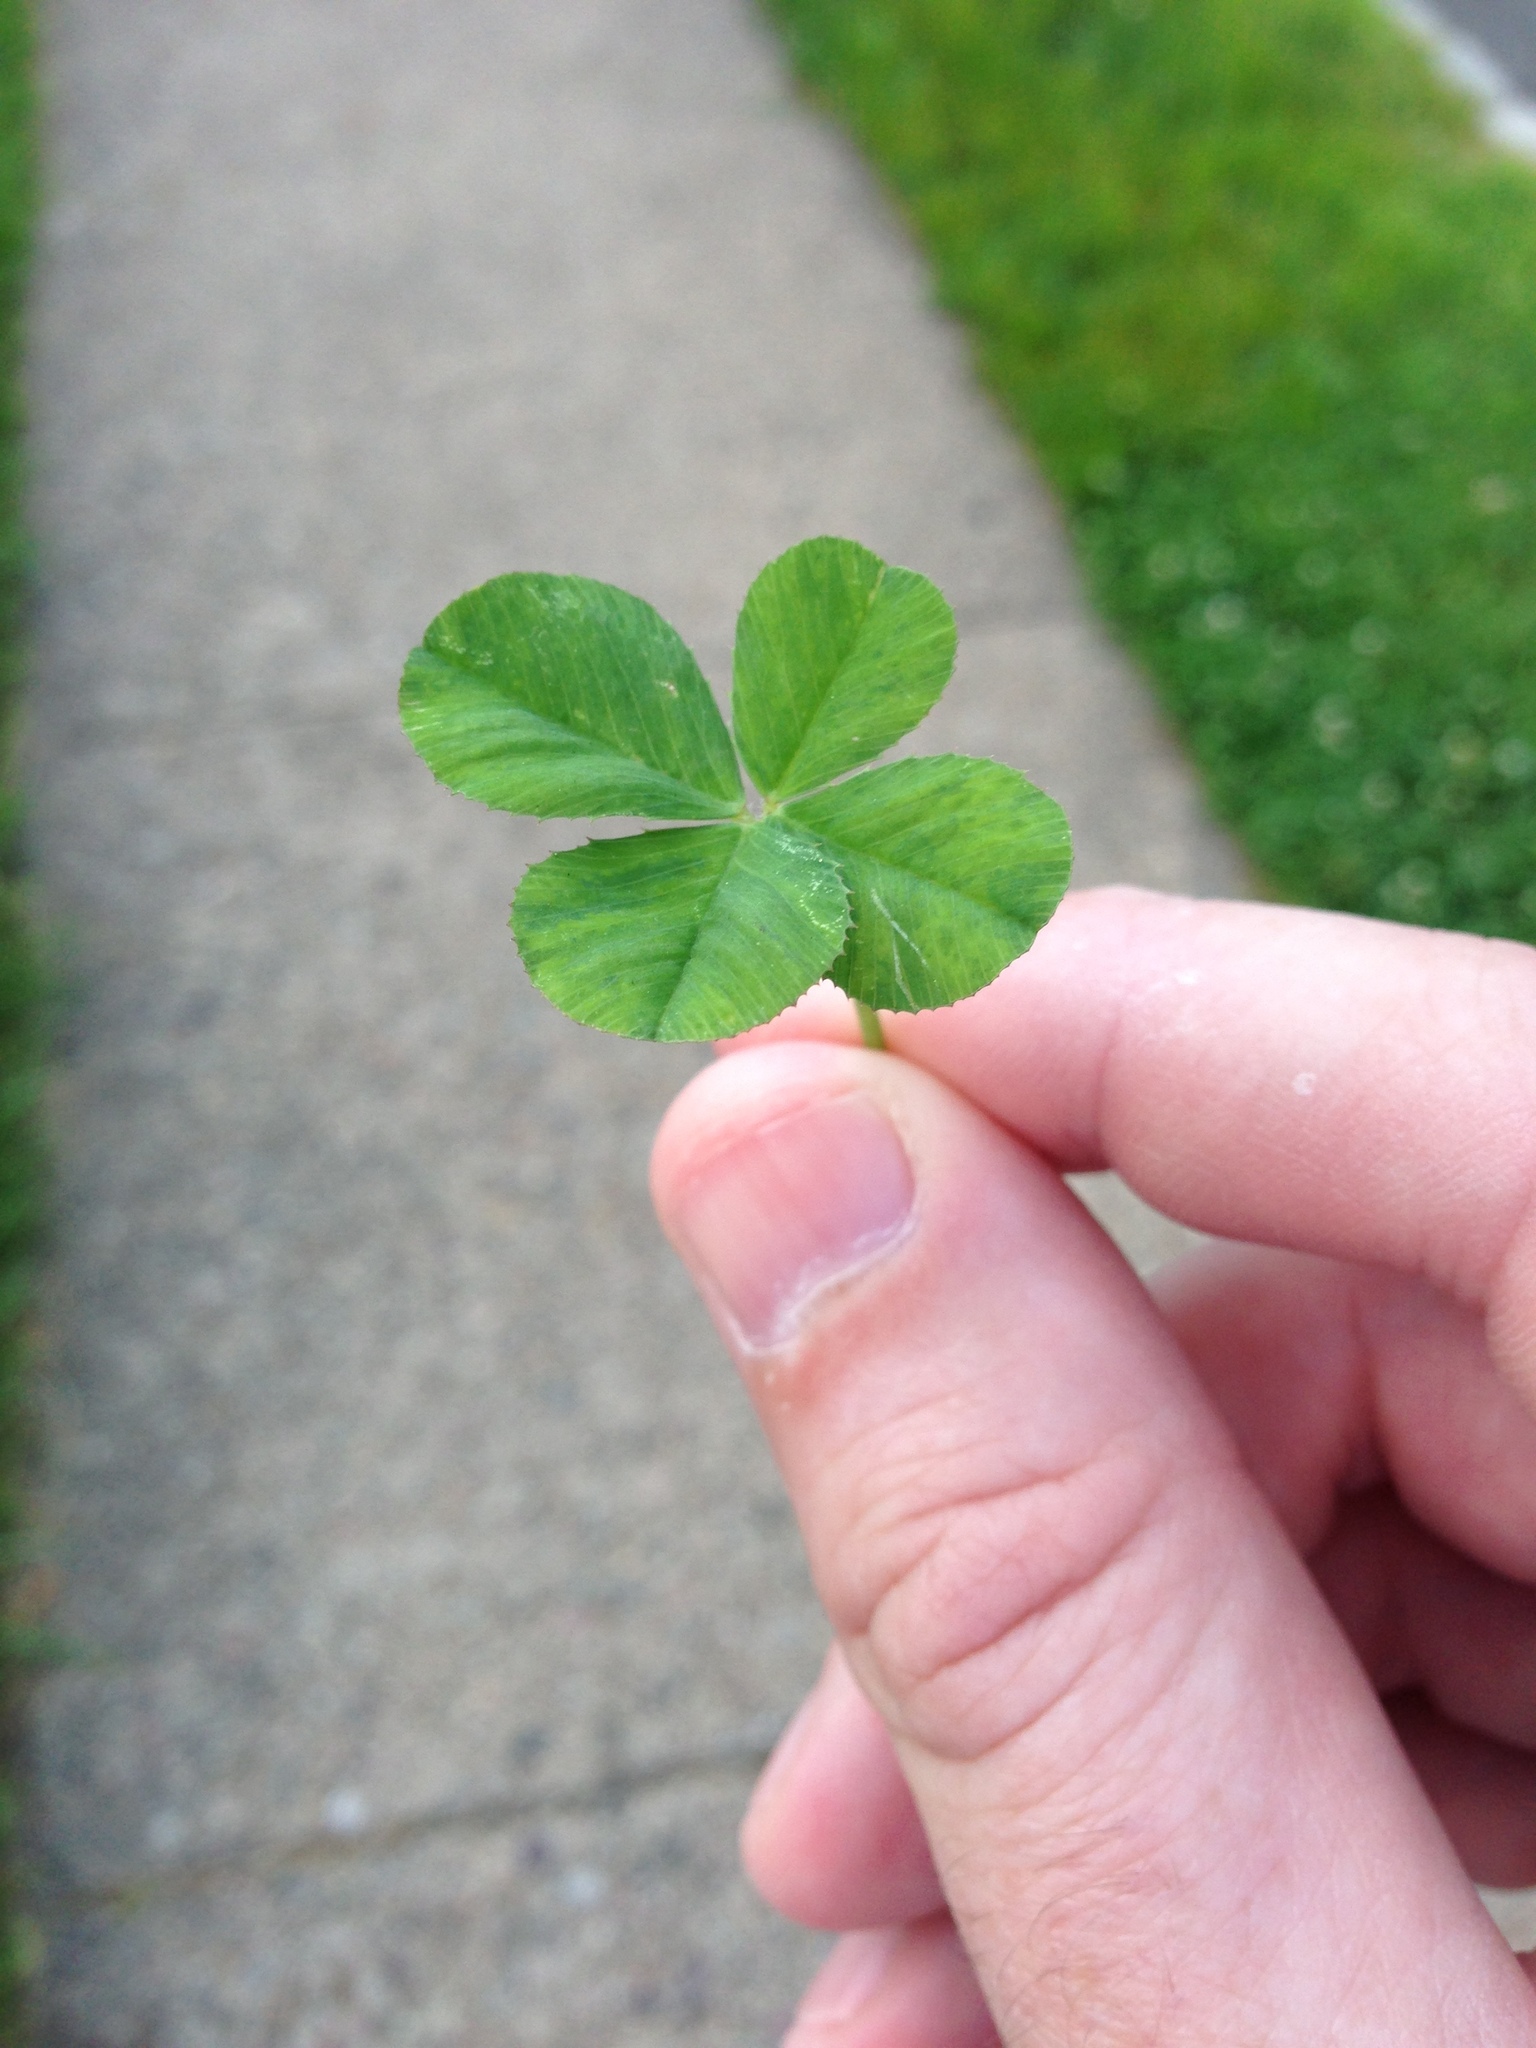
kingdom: Plantae
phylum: Tracheophyta
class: Magnoliopsida
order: Fabales
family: Fabaceae
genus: Trifolium
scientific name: Trifolium repens
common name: White clover
